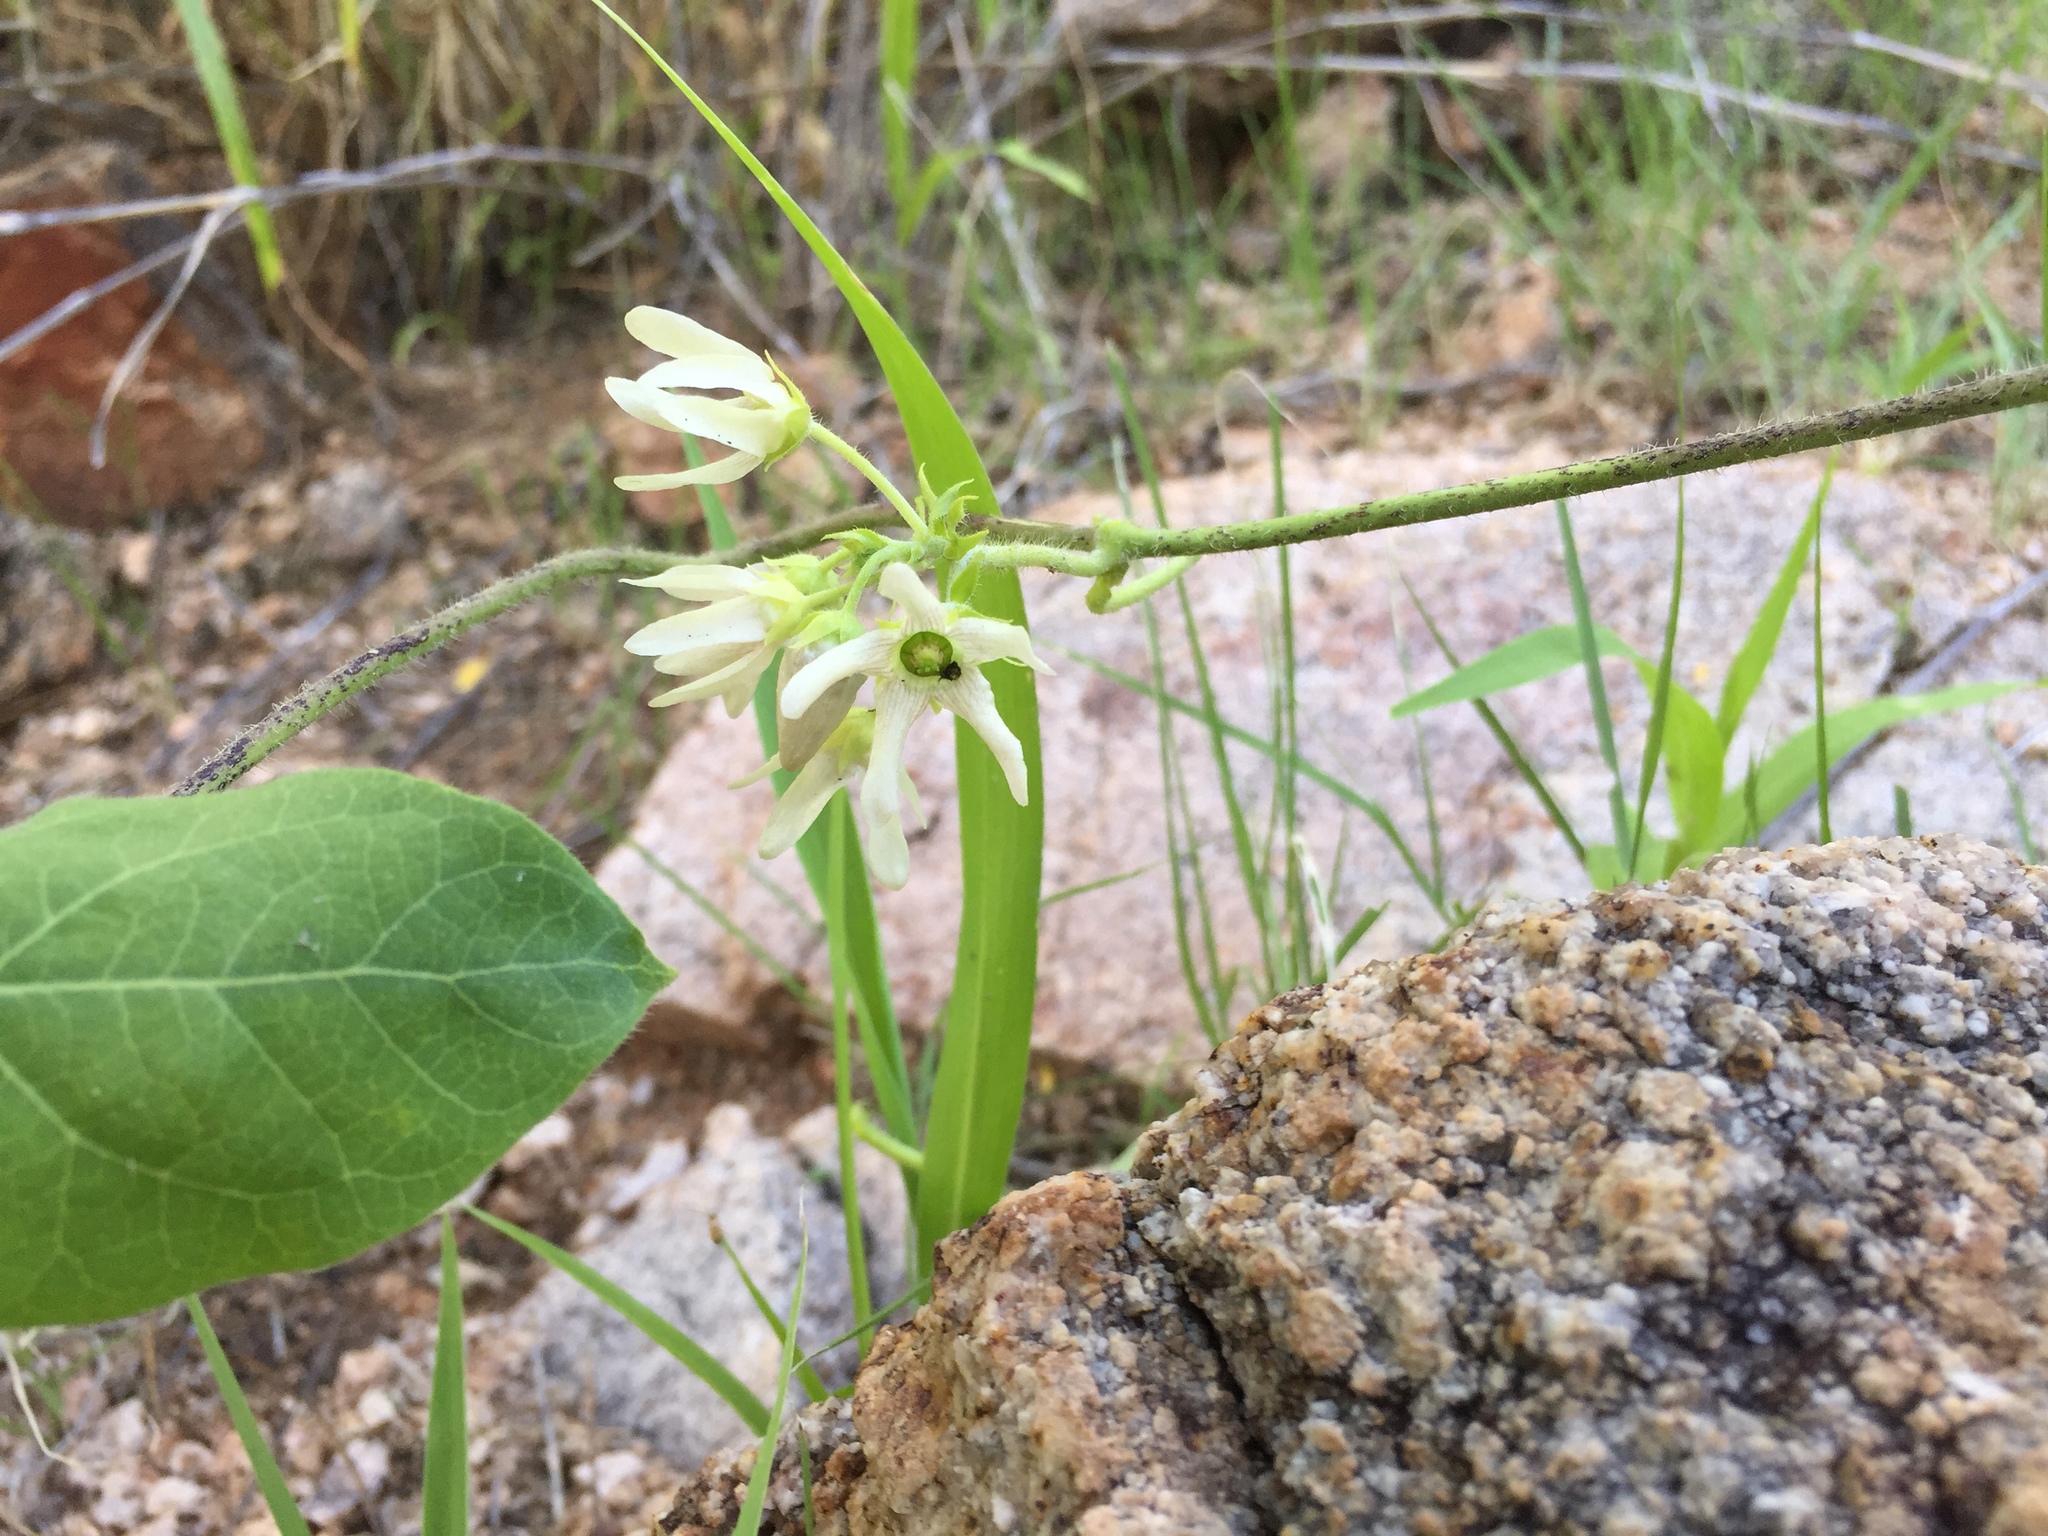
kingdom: Plantae
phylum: Tracheophyta
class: Magnoliopsida
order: Gentianales
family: Apocynaceae
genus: Polystemma
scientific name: Polystemma cordifolium
